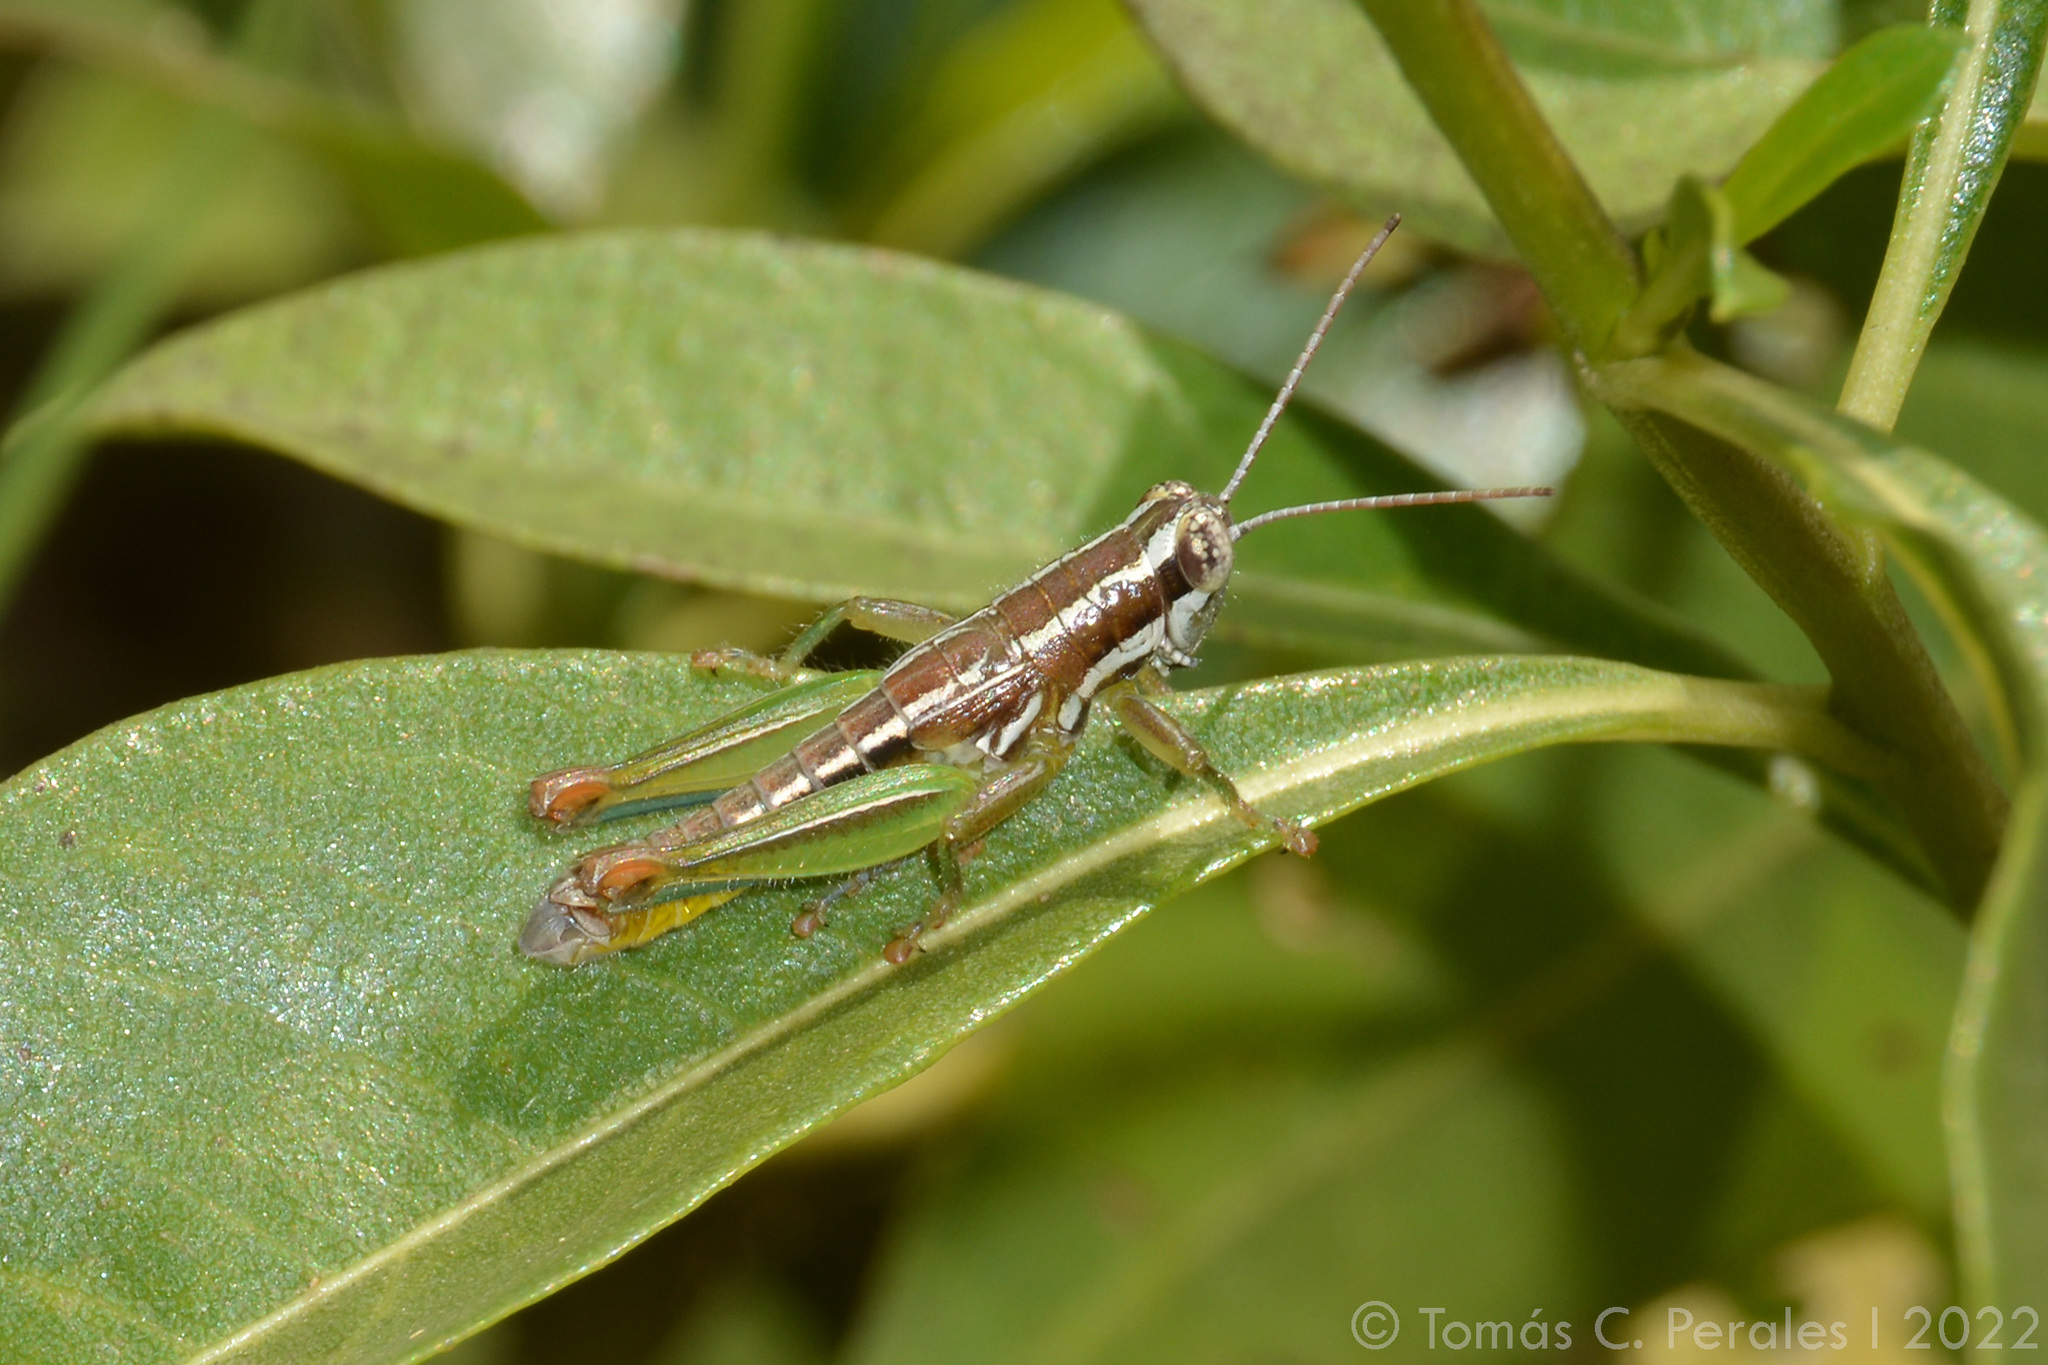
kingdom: Animalia
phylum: Arthropoda
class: Insecta
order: Orthoptera
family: Acrididae
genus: Neopedies
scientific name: Neopedies brunneri
